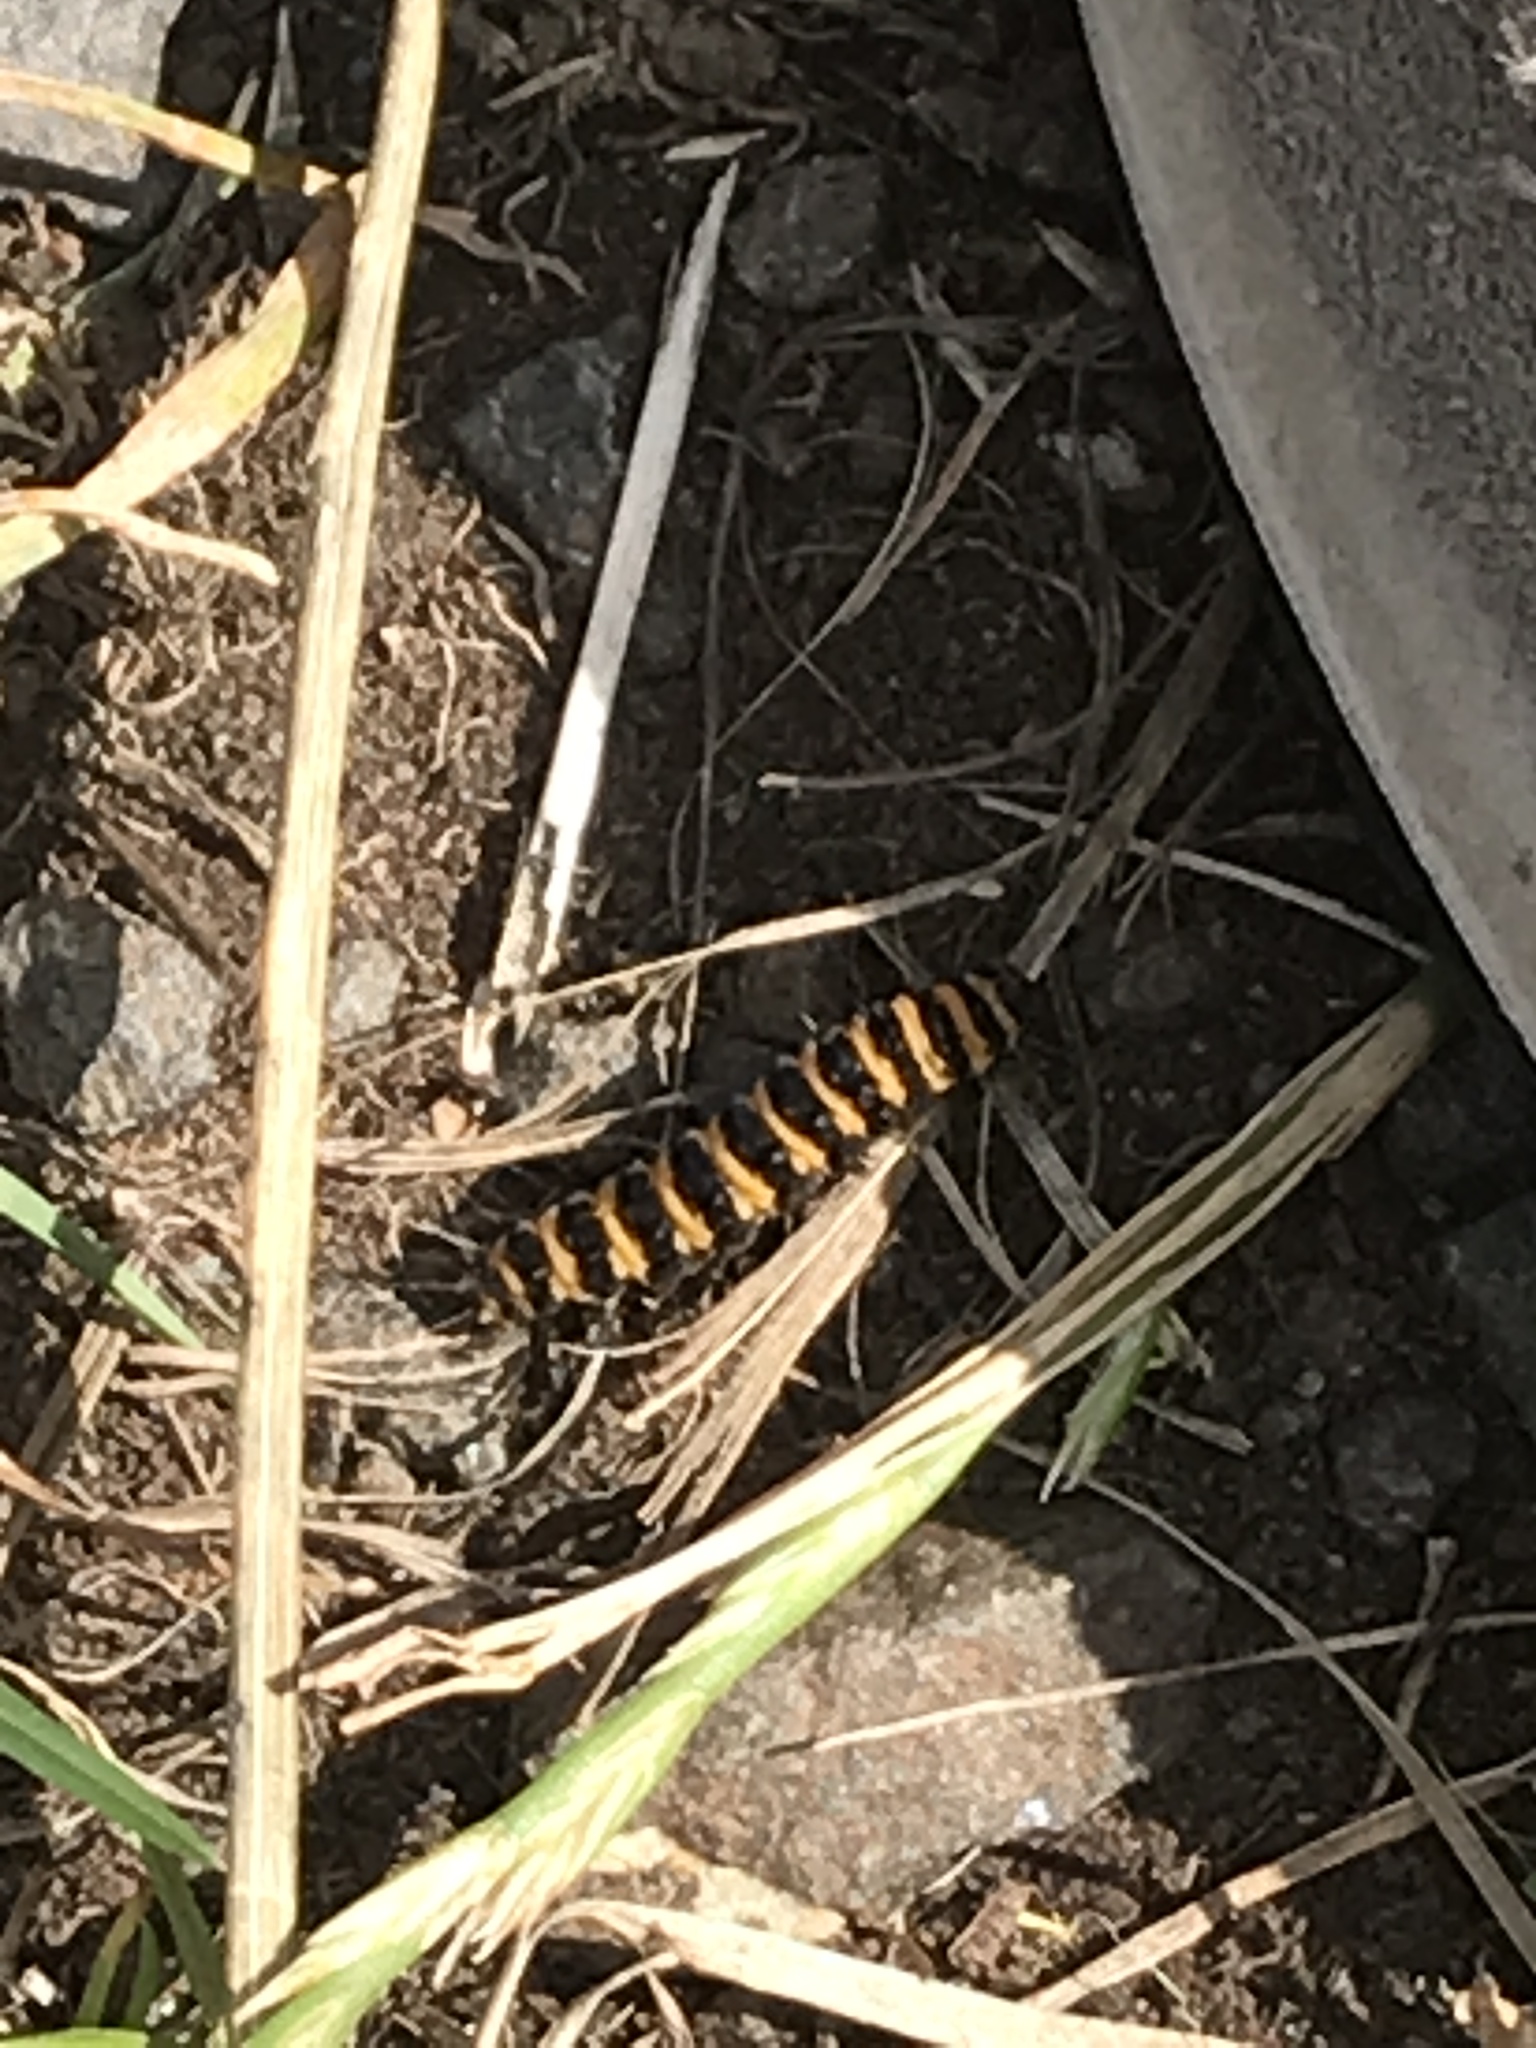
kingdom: Animalia
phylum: Arthropoda
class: Insecta
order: Lepidoptera
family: Erebidae
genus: Tyria
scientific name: Tyria jacobaeae
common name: Cinnabar
